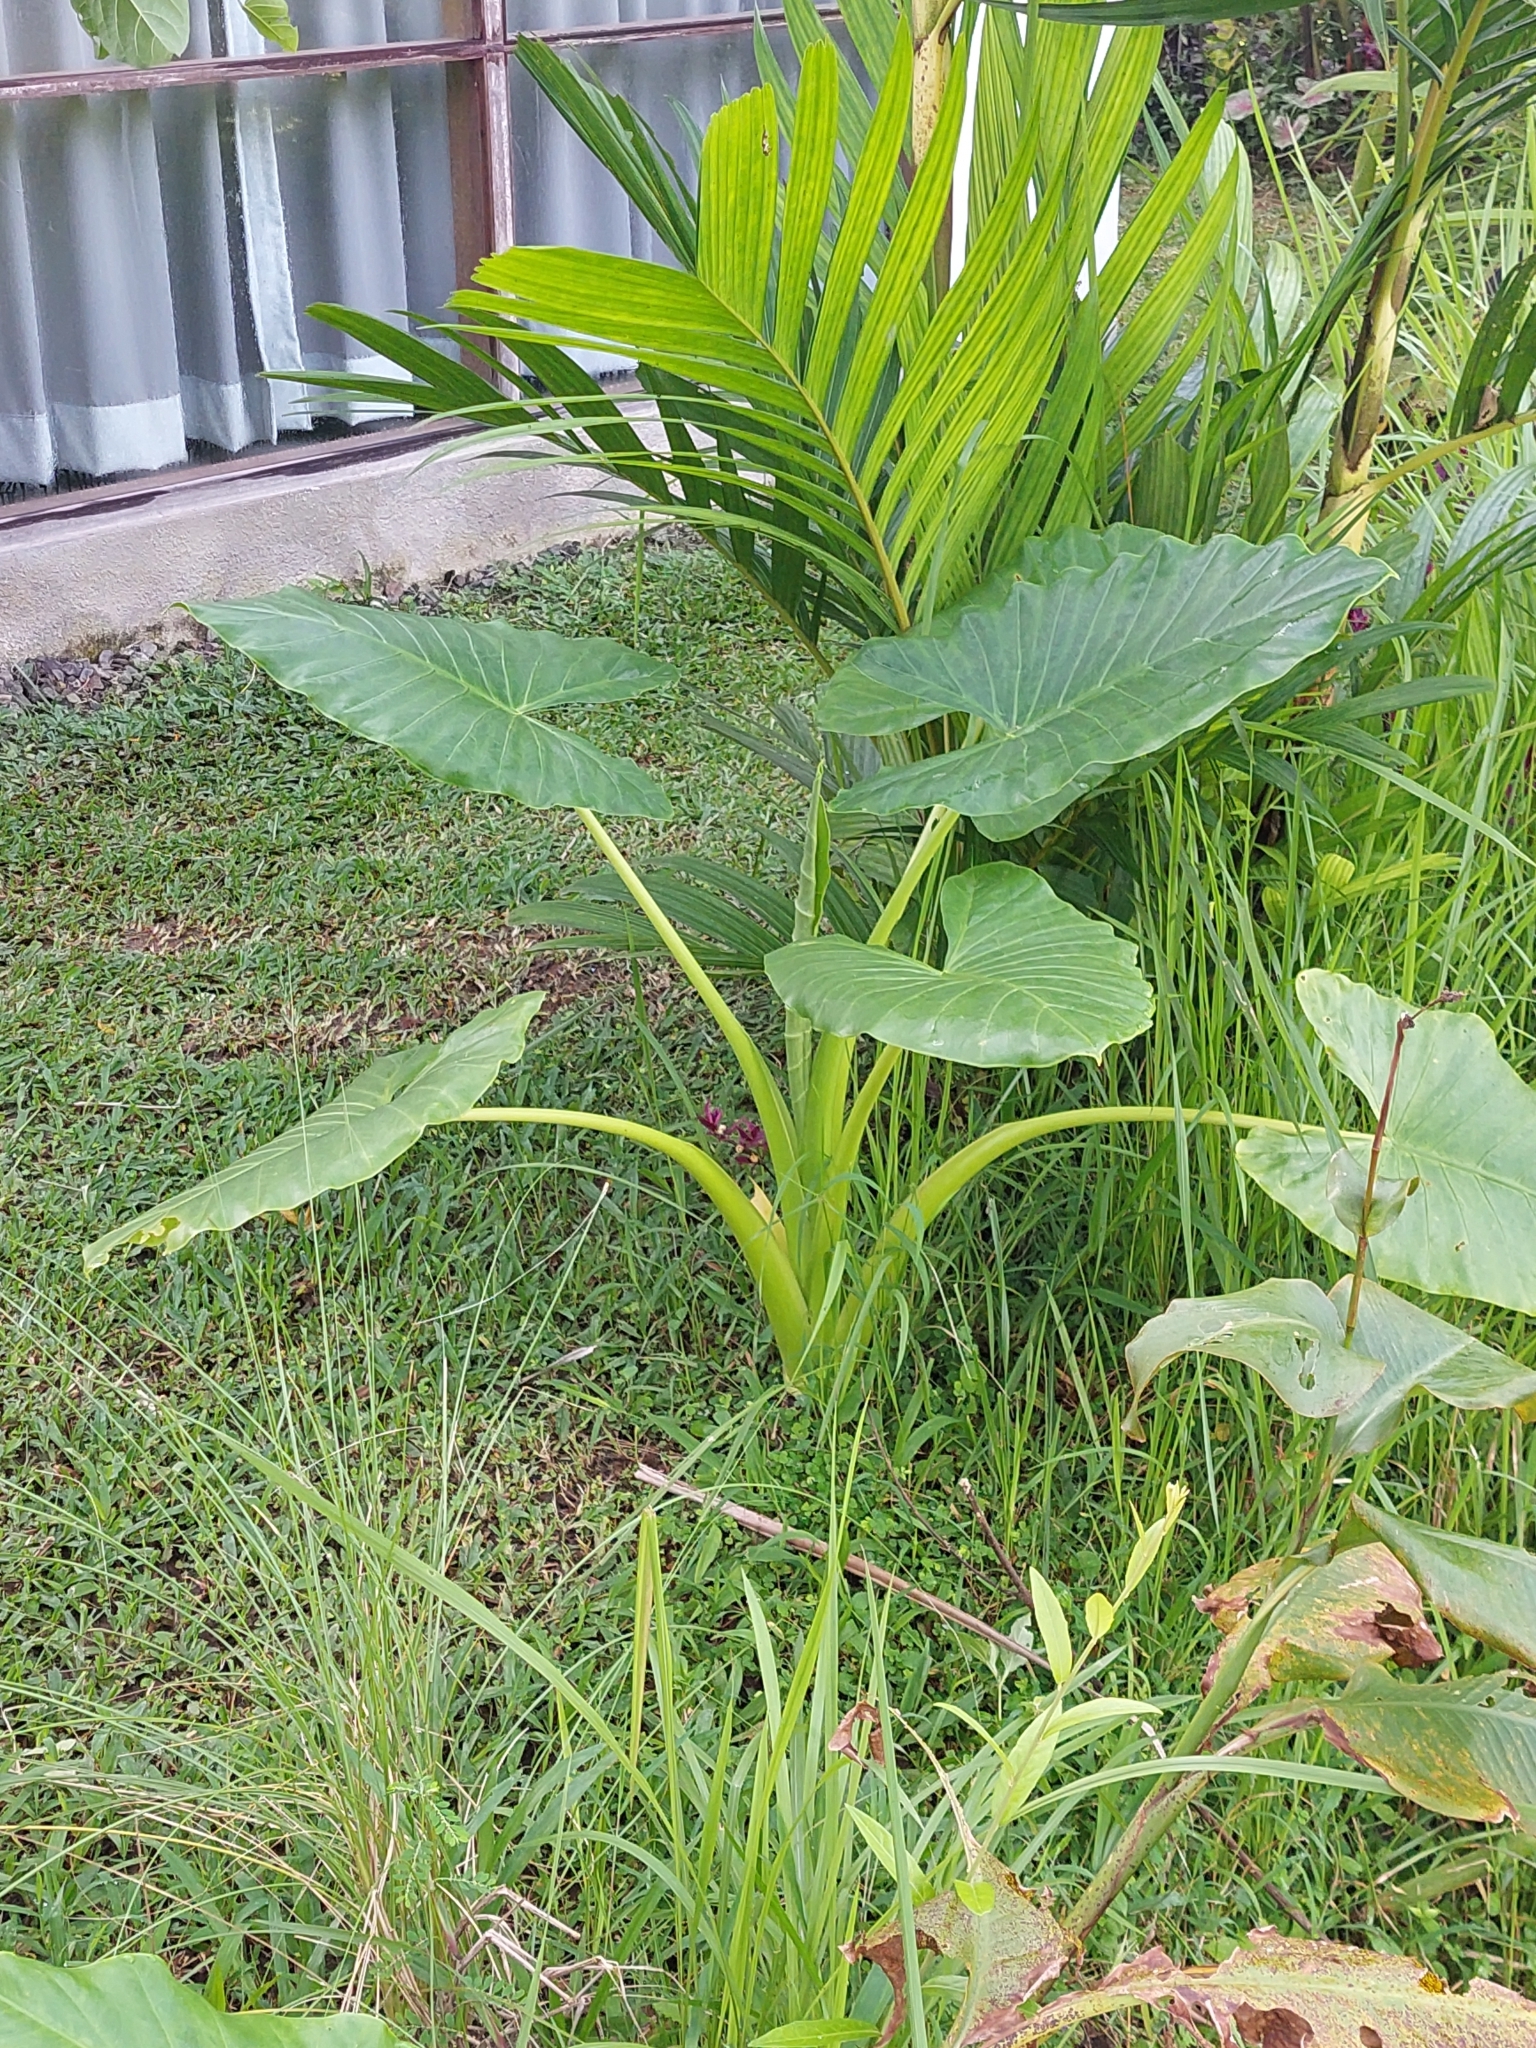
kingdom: Plantae
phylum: Tracheophyta
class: Liliopsida
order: Alismatales
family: Araceae
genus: Alocasia
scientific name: Alocasia macrorrhizos
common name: Giant taro
